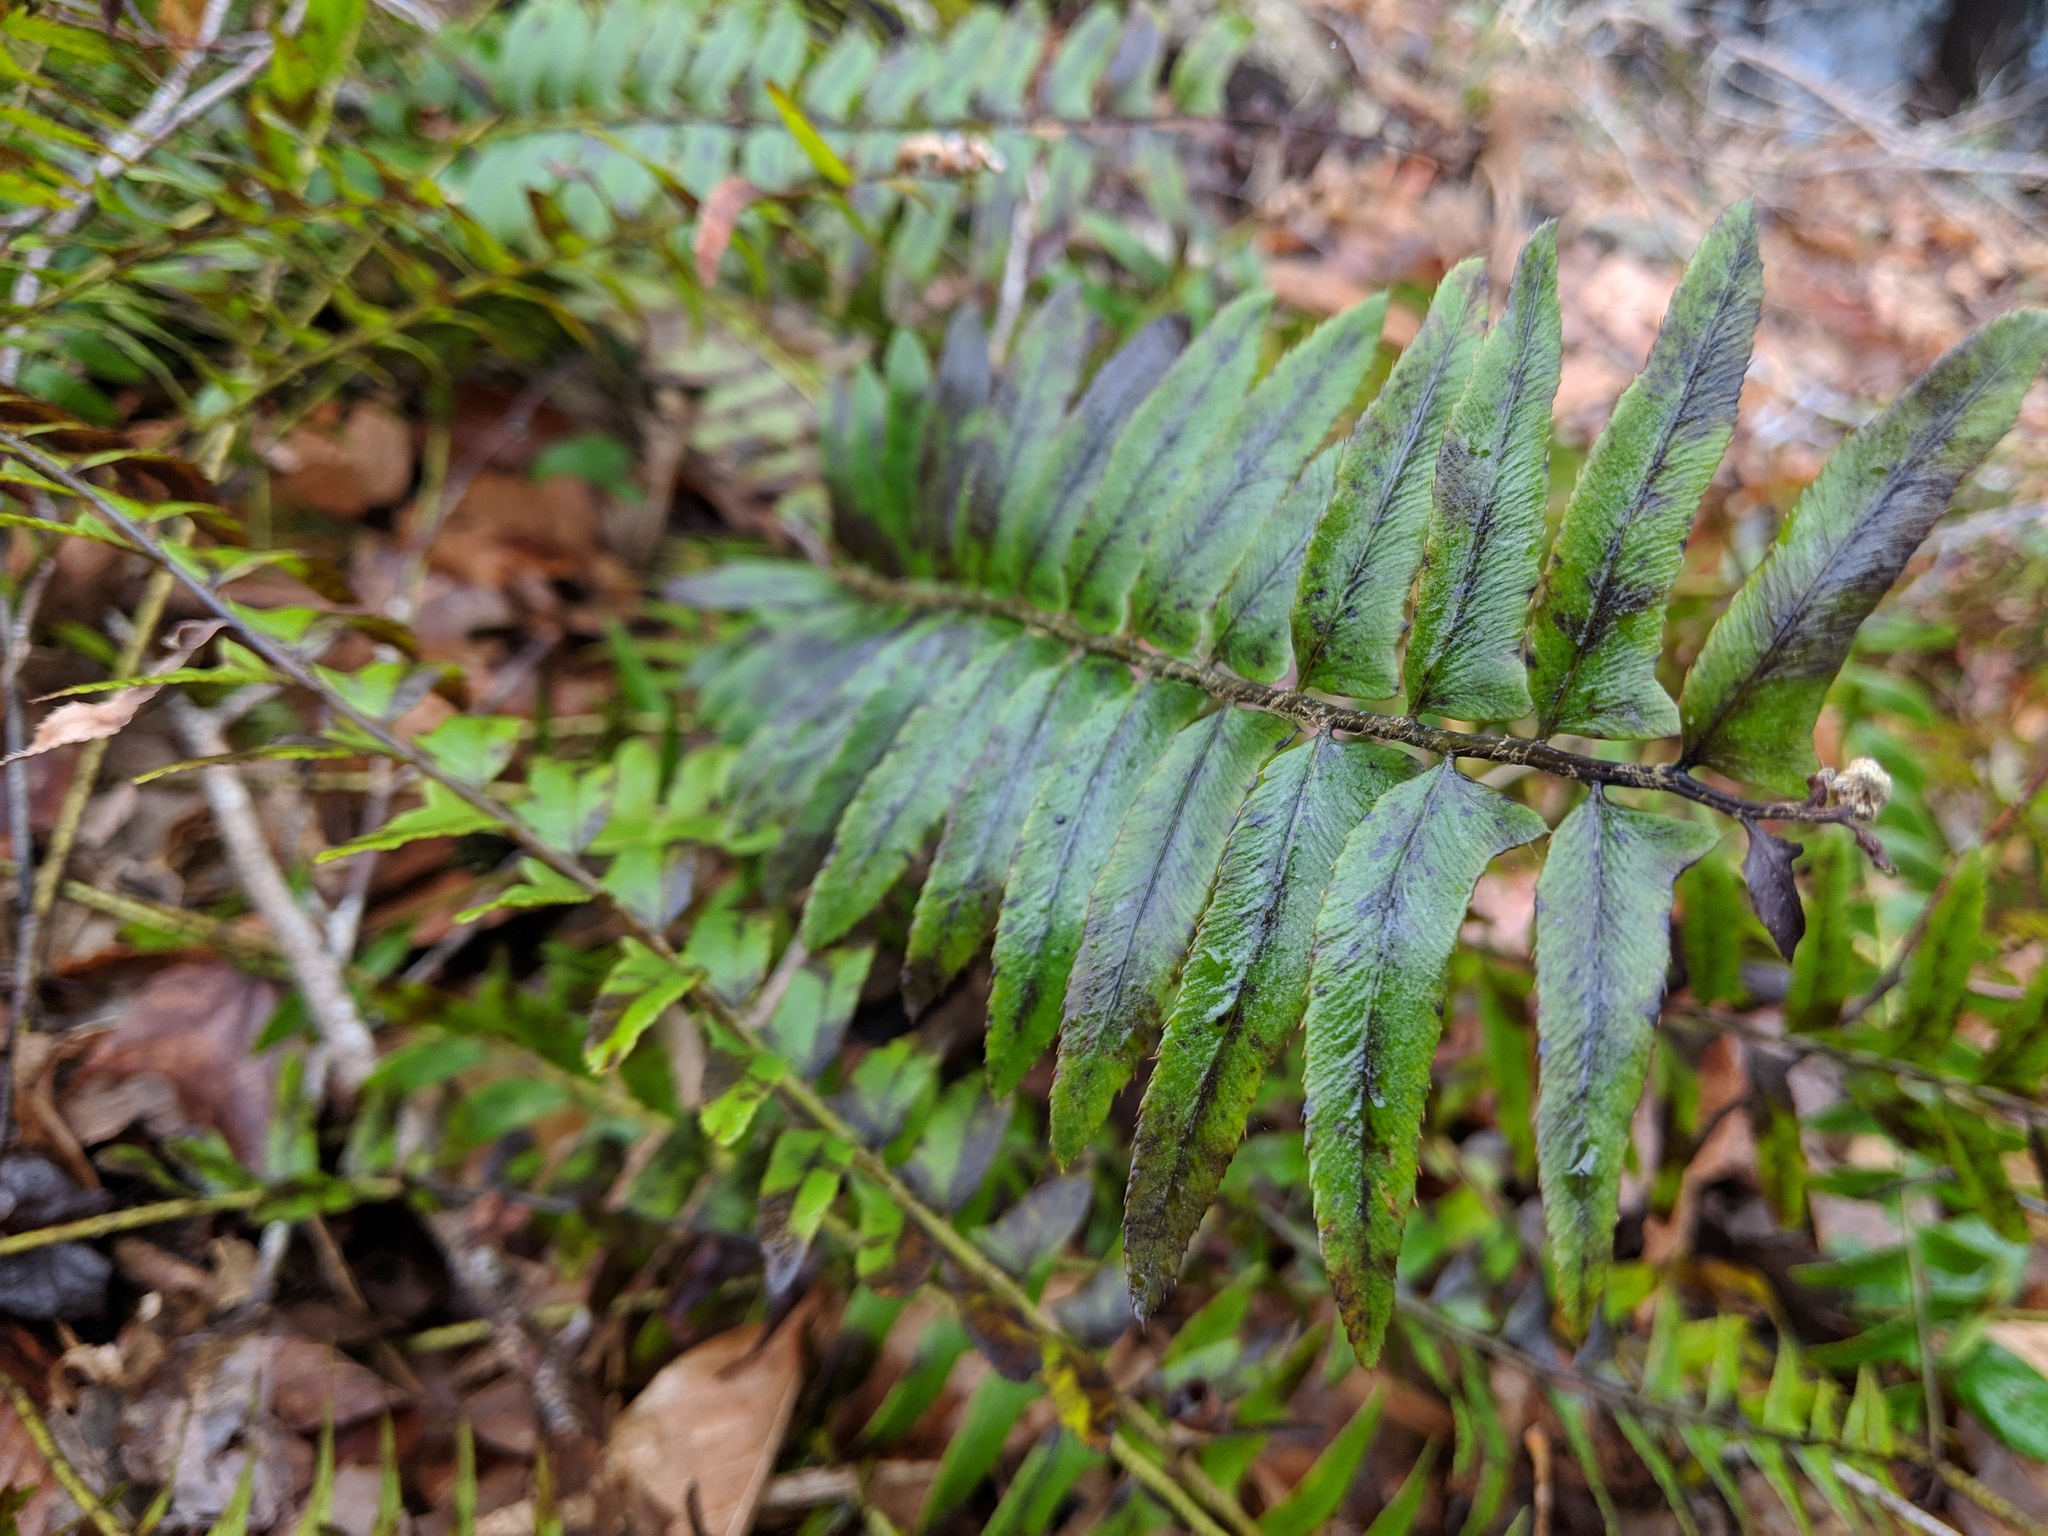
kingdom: Plantae
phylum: Tracheophyta
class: Polypodiopsida
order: Polypodiales
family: Dryopteridaceae
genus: Polystichum
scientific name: Polystichum acrostichoides
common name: Christmas fern
